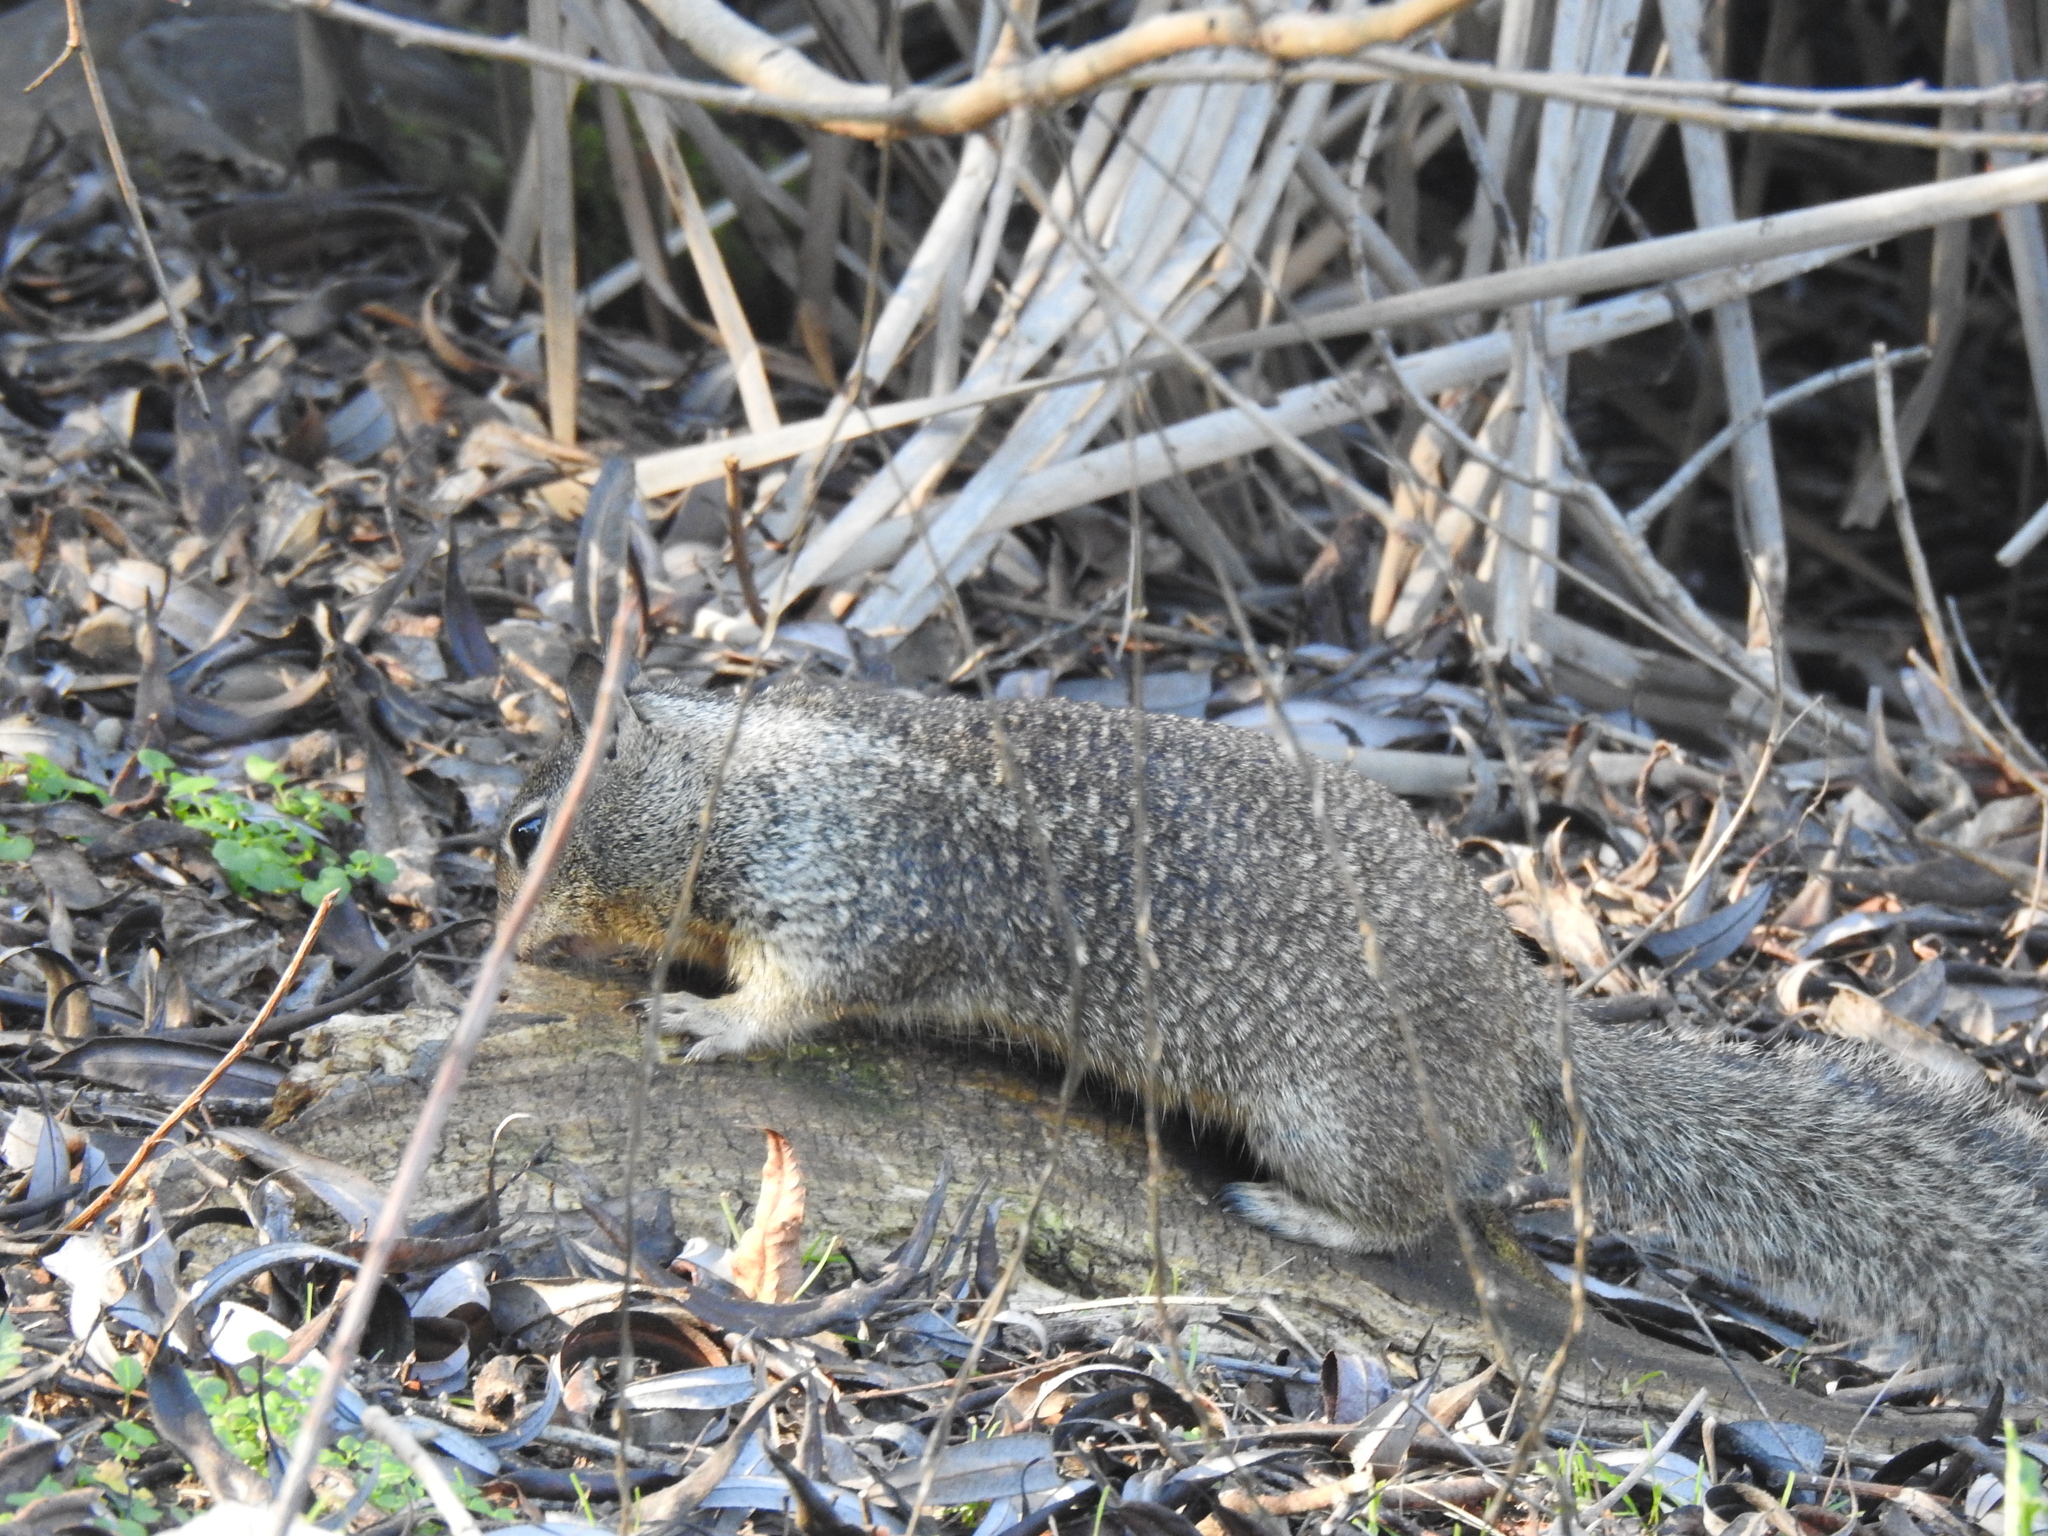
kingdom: Animalia
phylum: Chordata
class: Mammalia
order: Rodentia
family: Sciuridae
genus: Otospermophilus
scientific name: Otospermophilus beecheyi
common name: California ground squirrel
